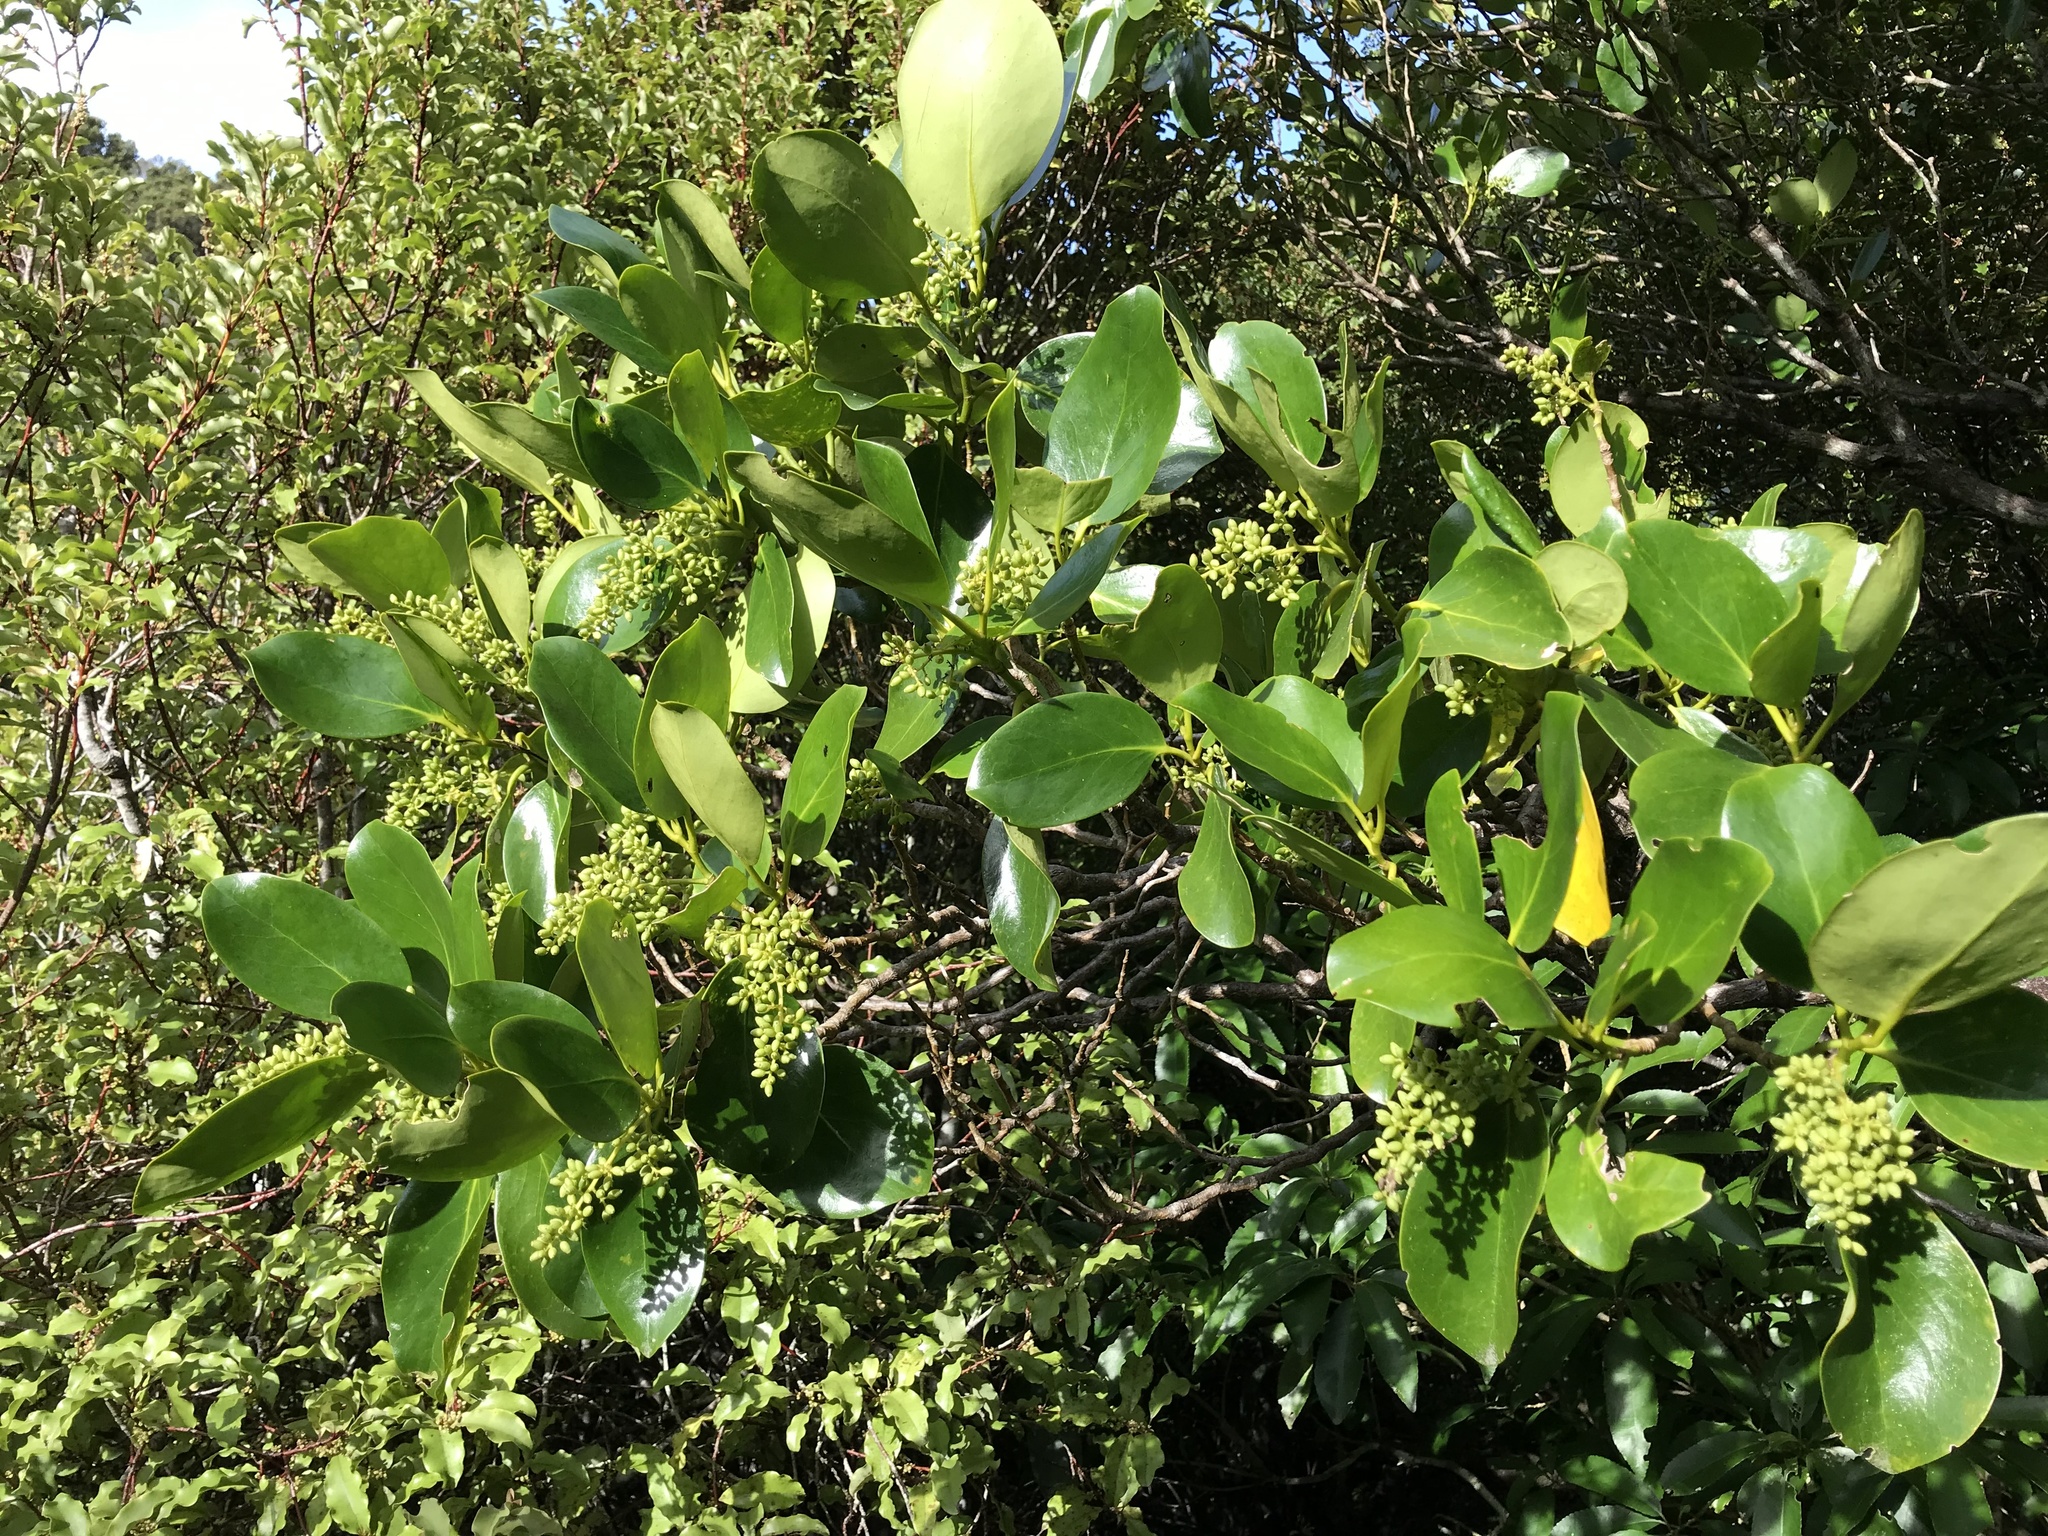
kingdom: Plantae
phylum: Tracheophyta
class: Magnoliopsida
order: Apiales
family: Griseliniaceae
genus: Griselinia
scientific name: Griselinia lucida
